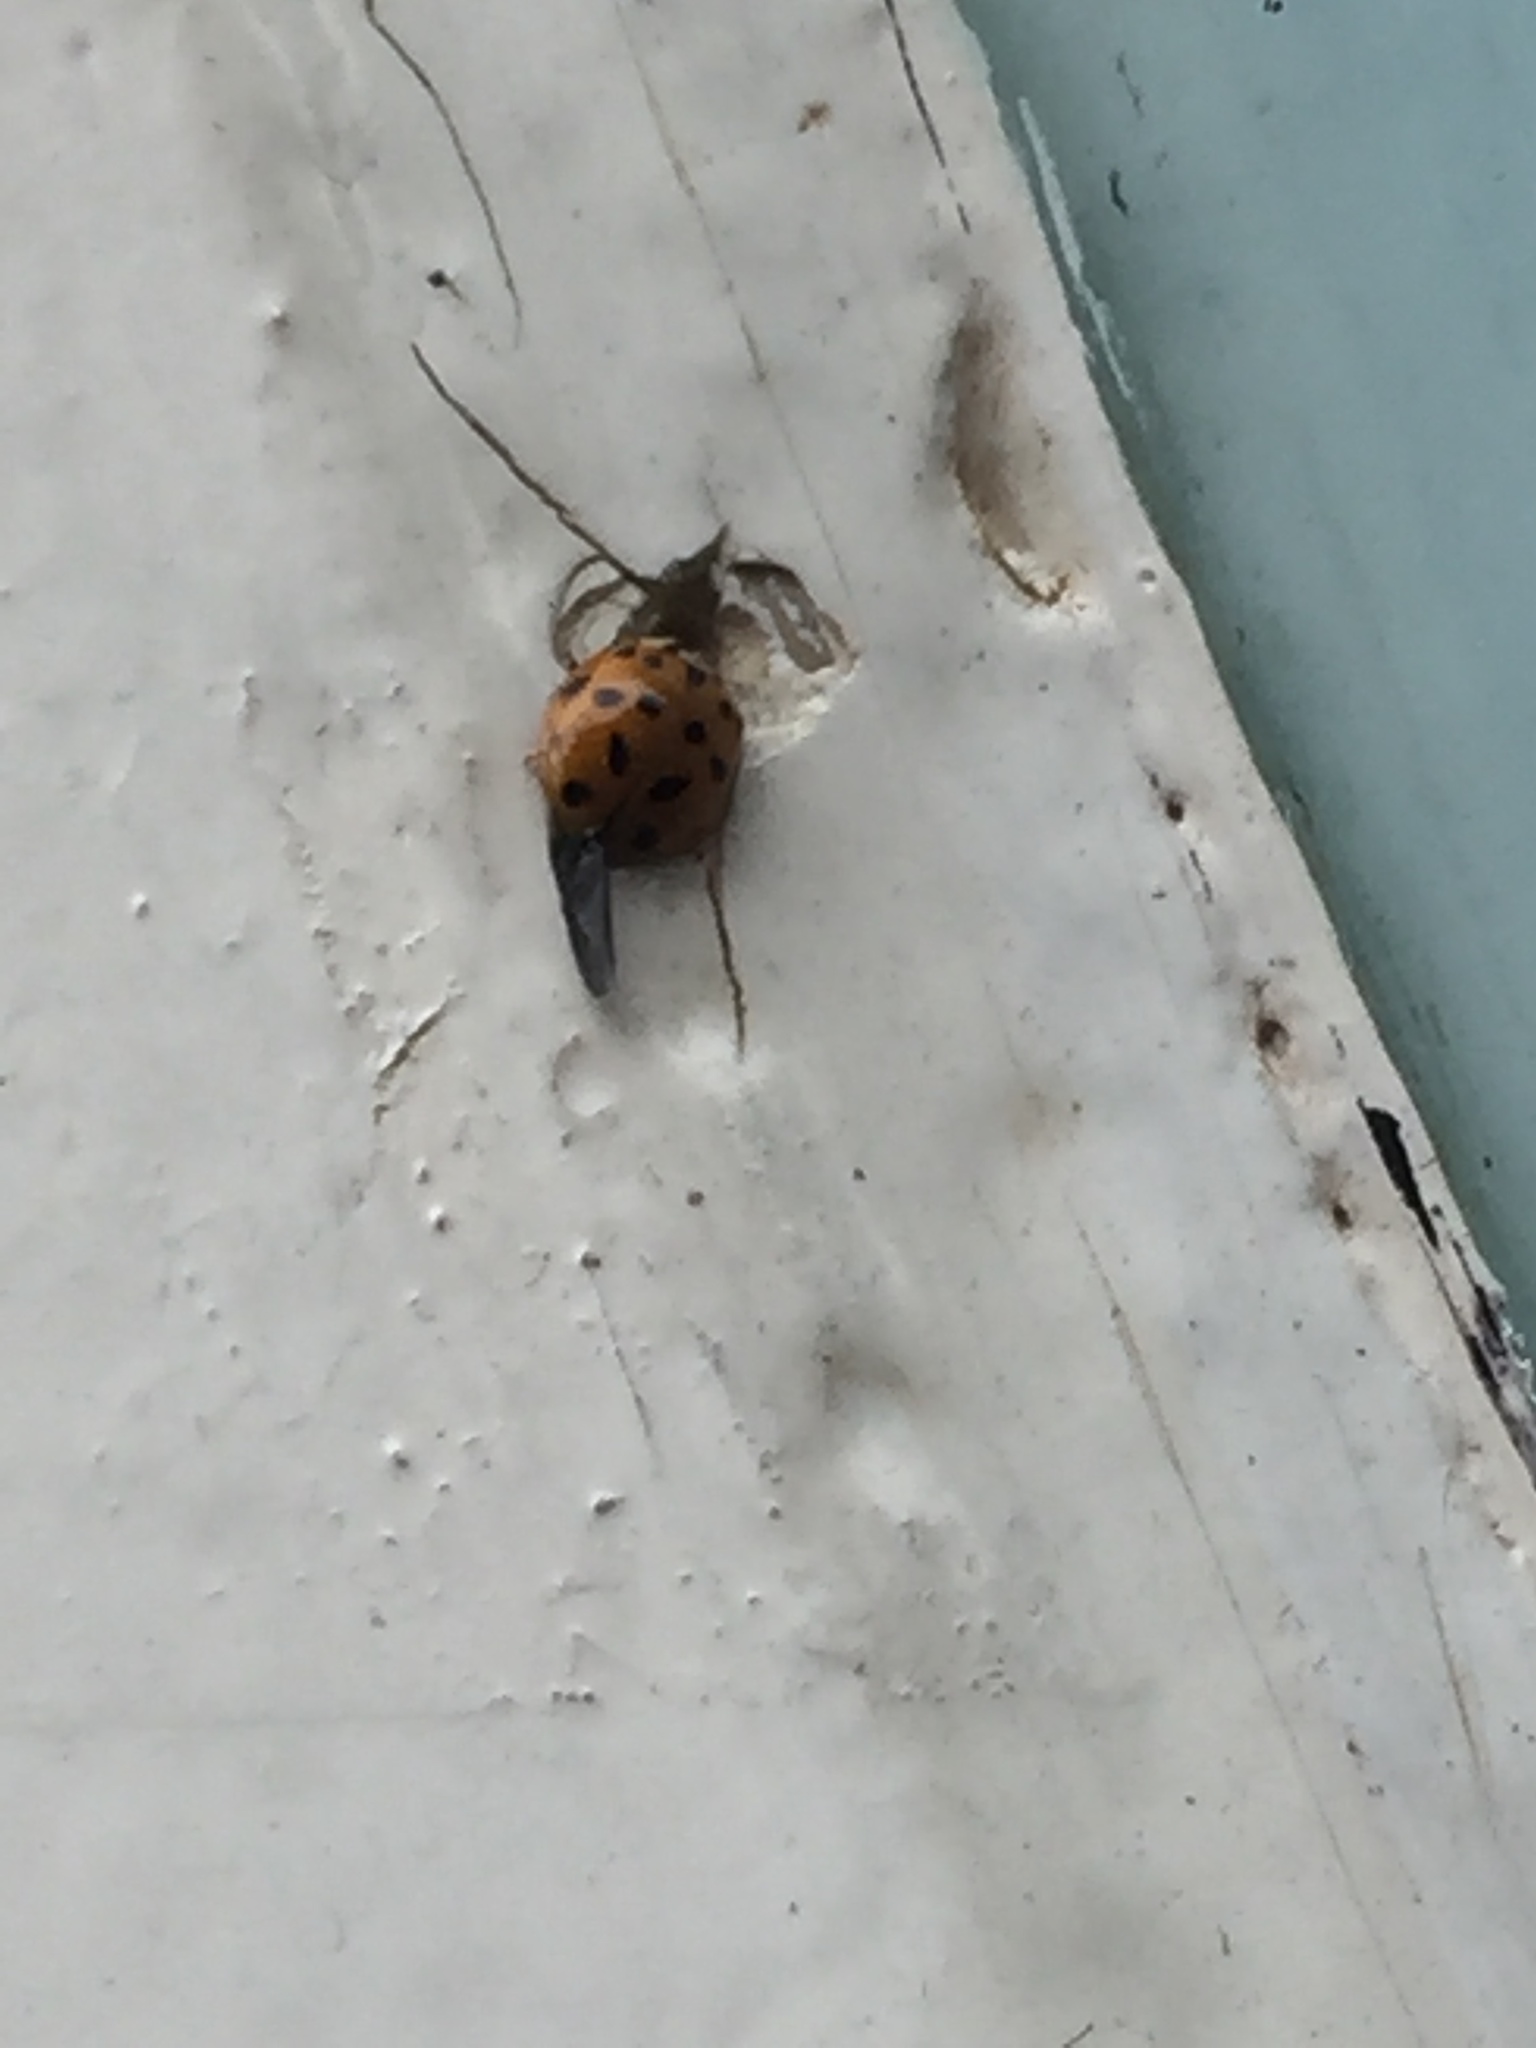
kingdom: Animalia
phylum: Arthropoda
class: Insecta
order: Coleoptera
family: Coccinellidae
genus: Harmonia
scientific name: Harmonia axyridis
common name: Harlequin ladybird
